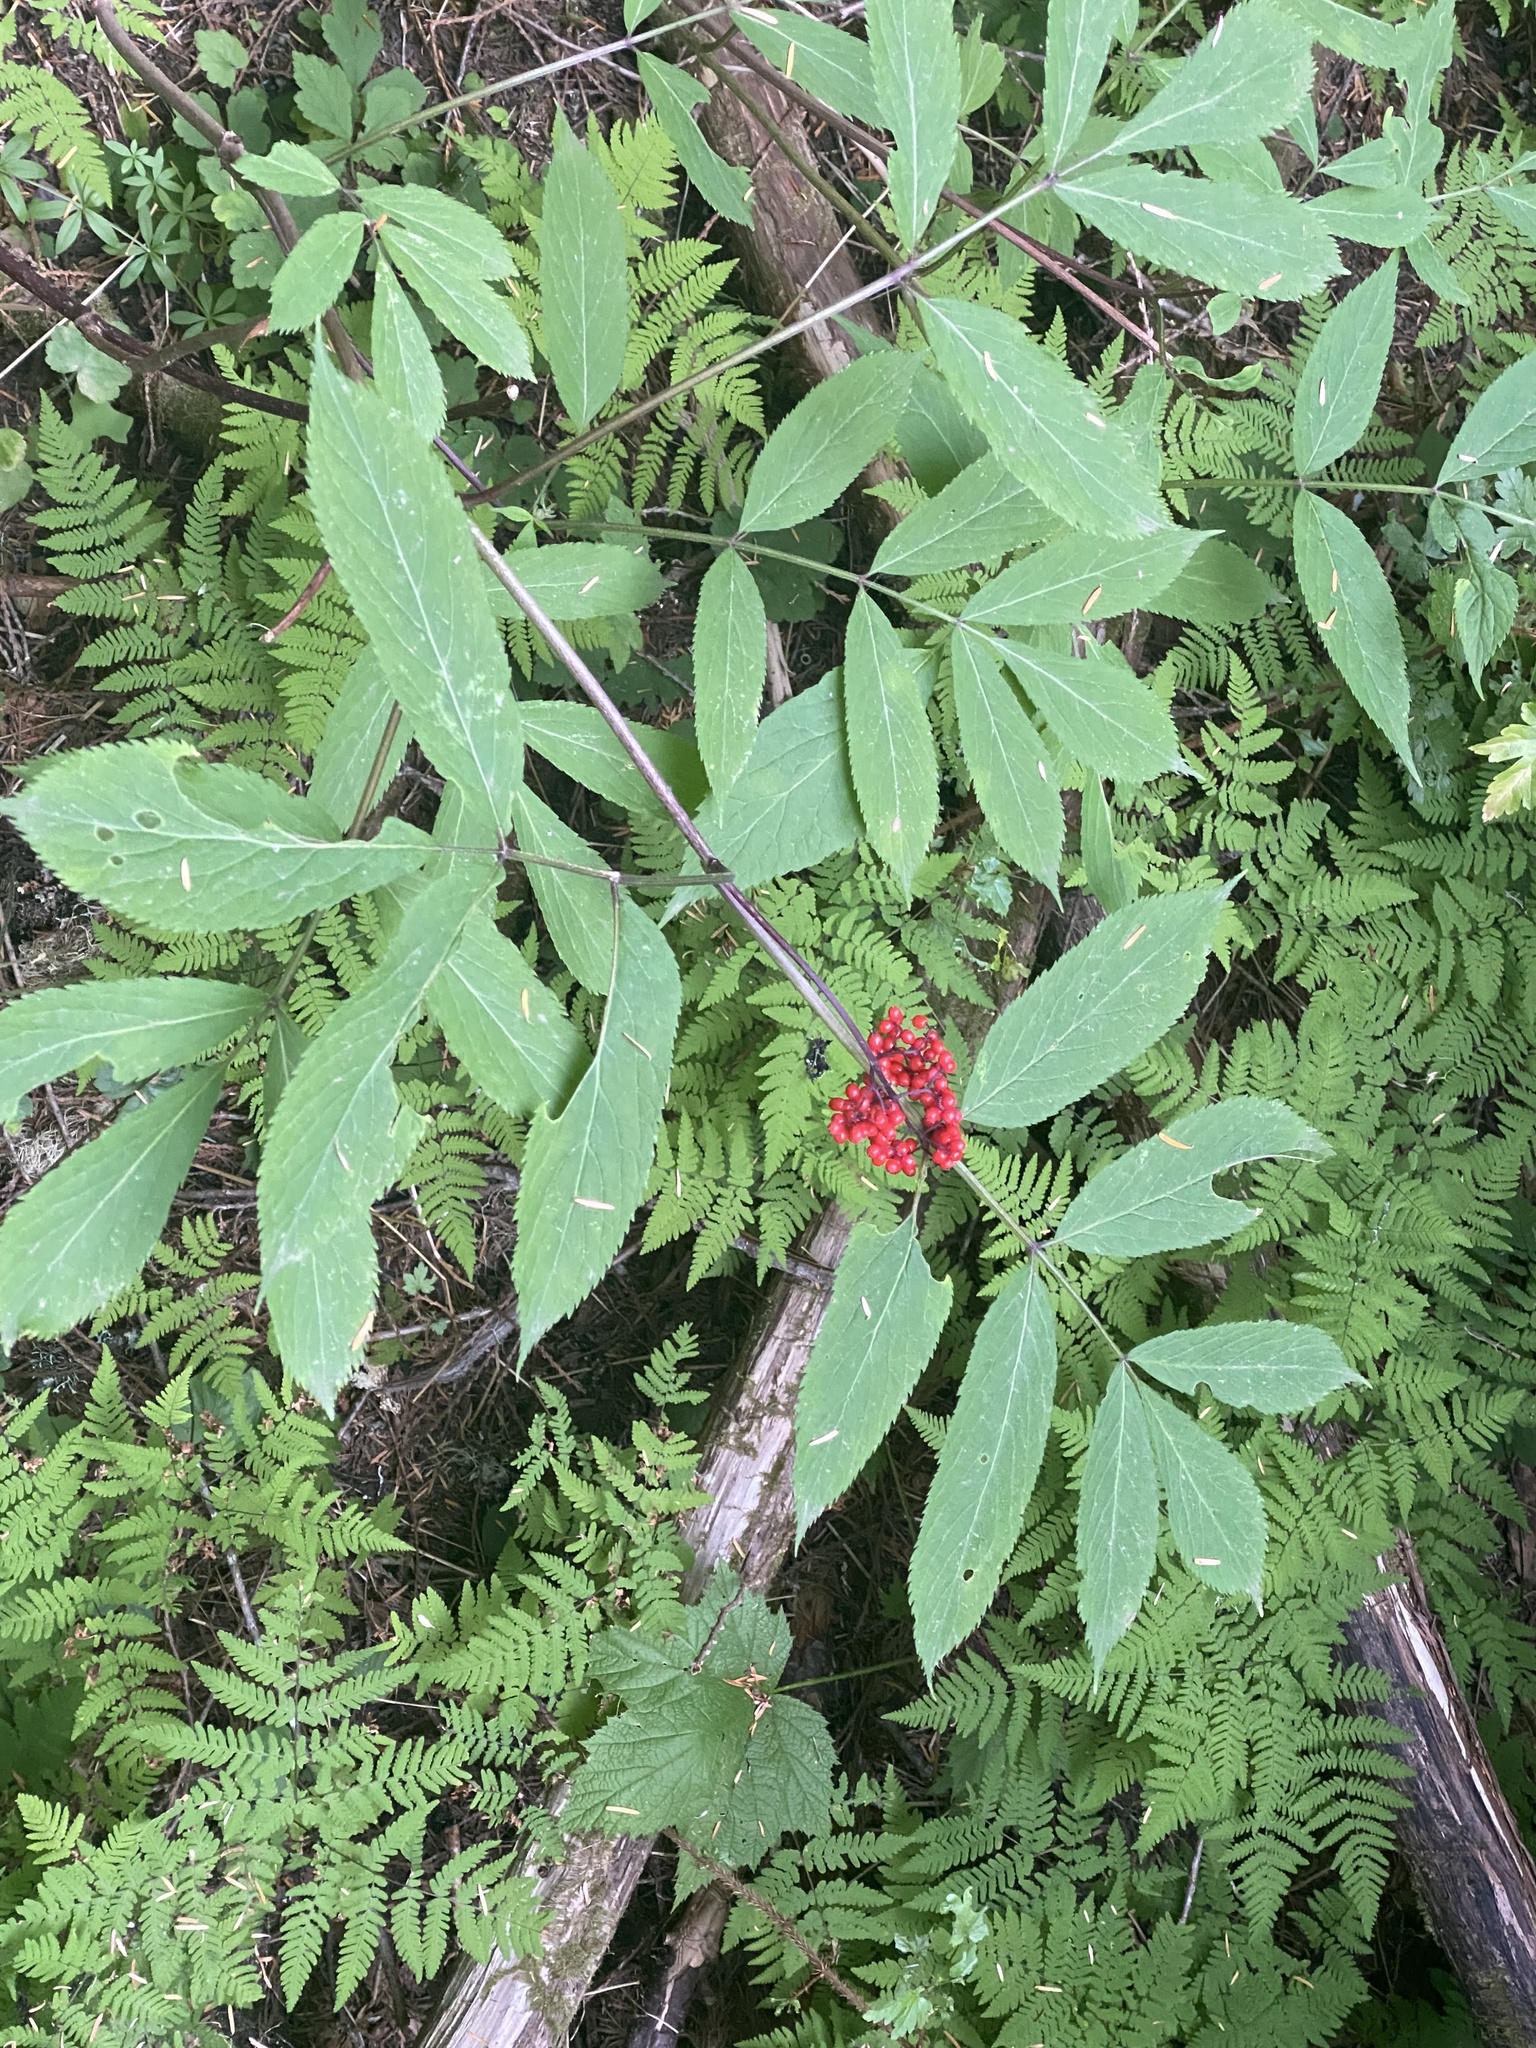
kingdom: Plantae
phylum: Tracheophyta
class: Magnoliopsida
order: Dipsacales
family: Viburnaceae
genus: Sambucus
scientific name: Sambucus racemosa
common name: Red-berried elder
